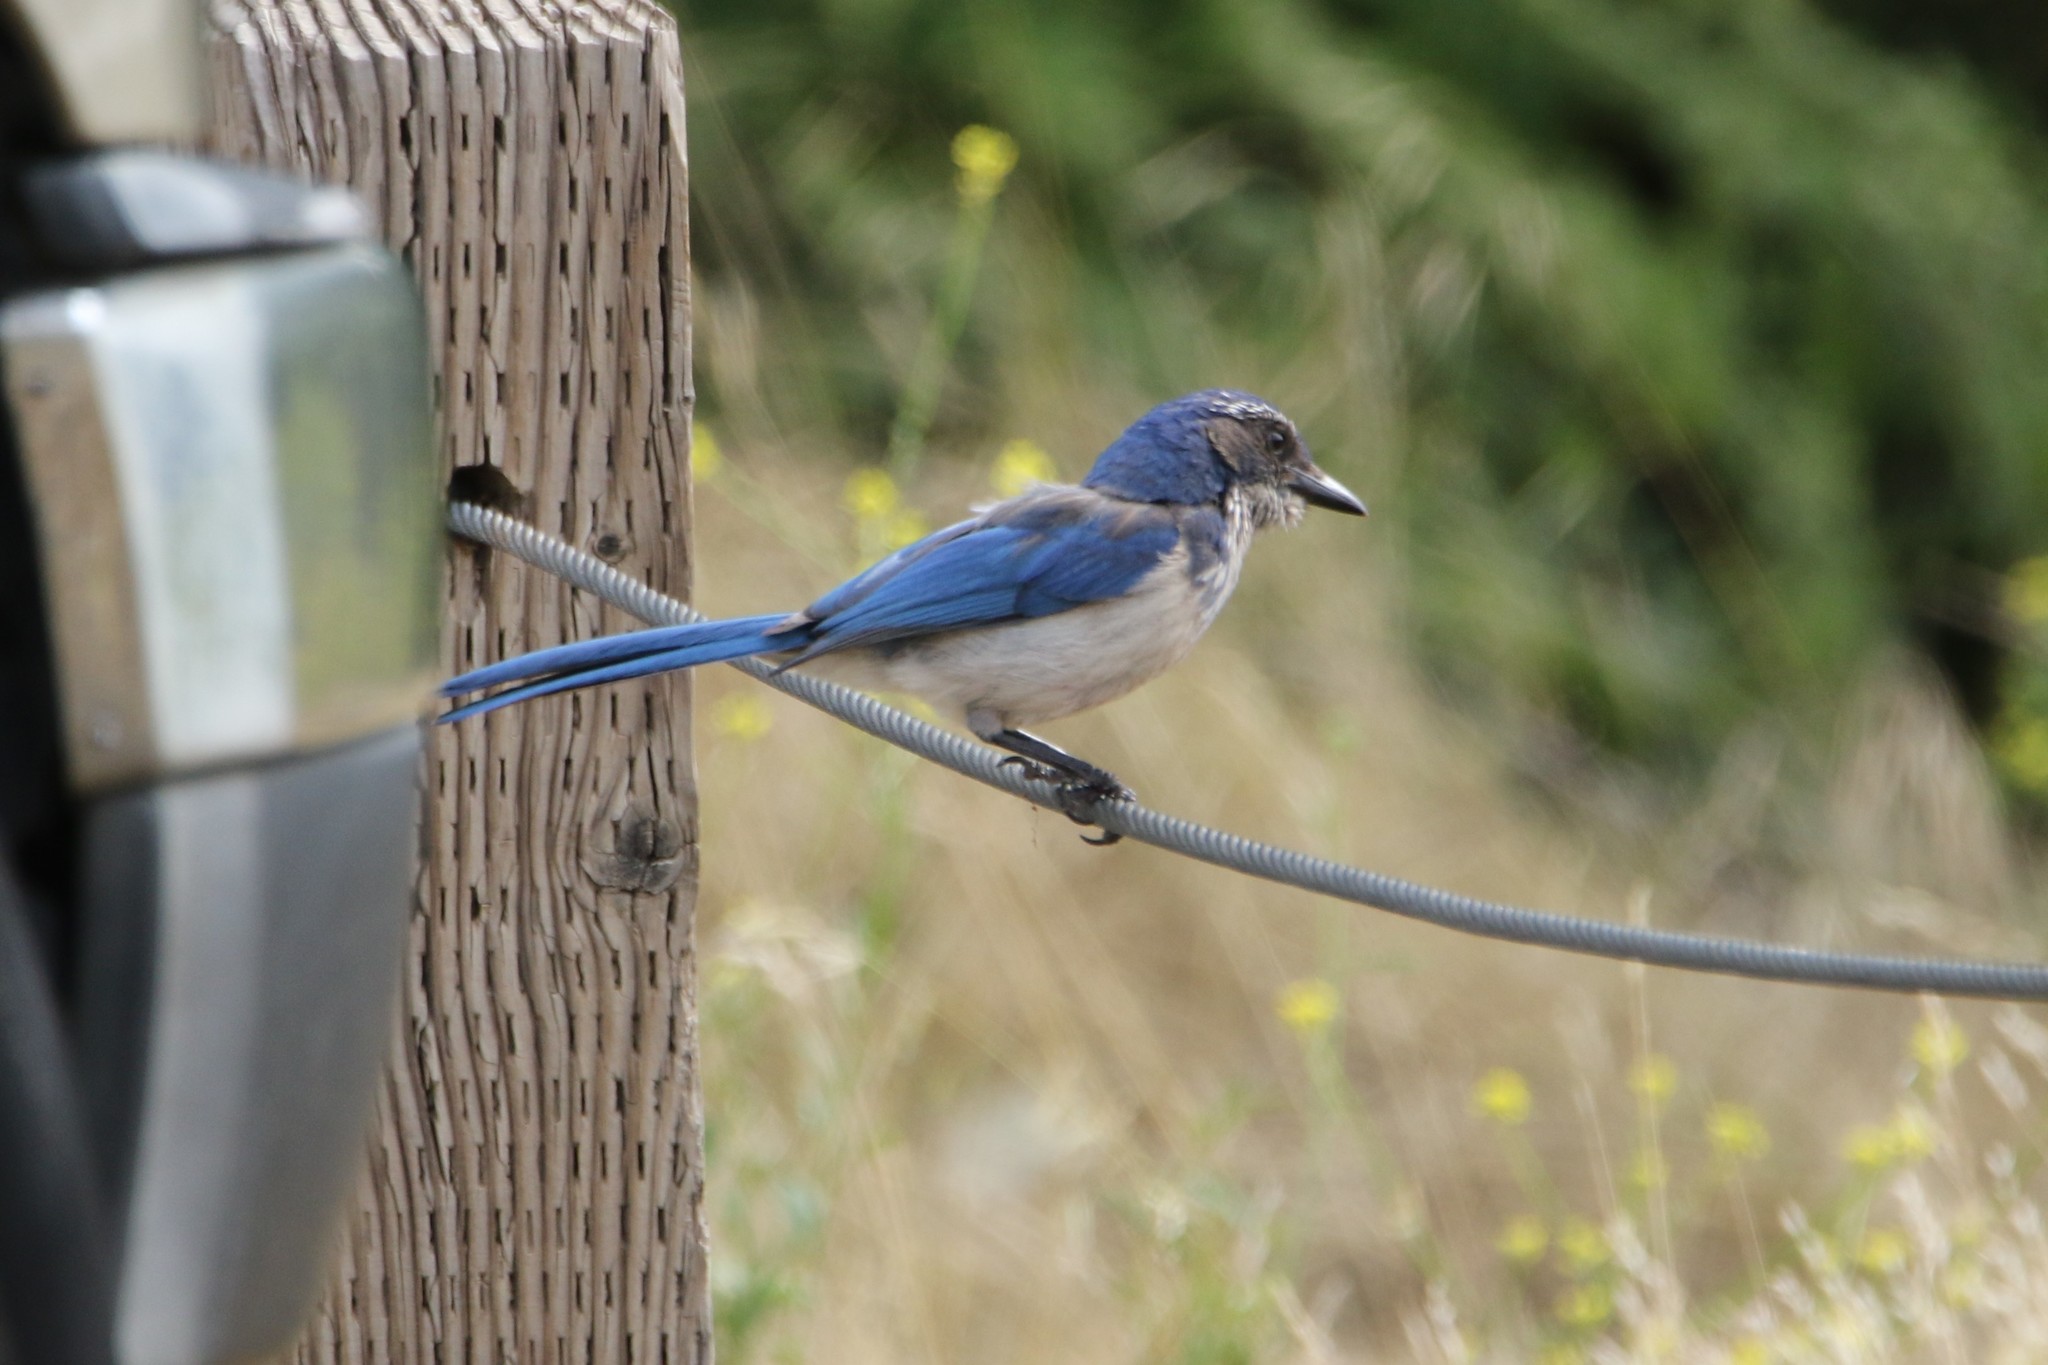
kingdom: Animalia
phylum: Chordata
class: Aves
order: Passeriformes
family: Corvidae
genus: Aphelocoma
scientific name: Aphelocoma californica
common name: California scrub-jay
